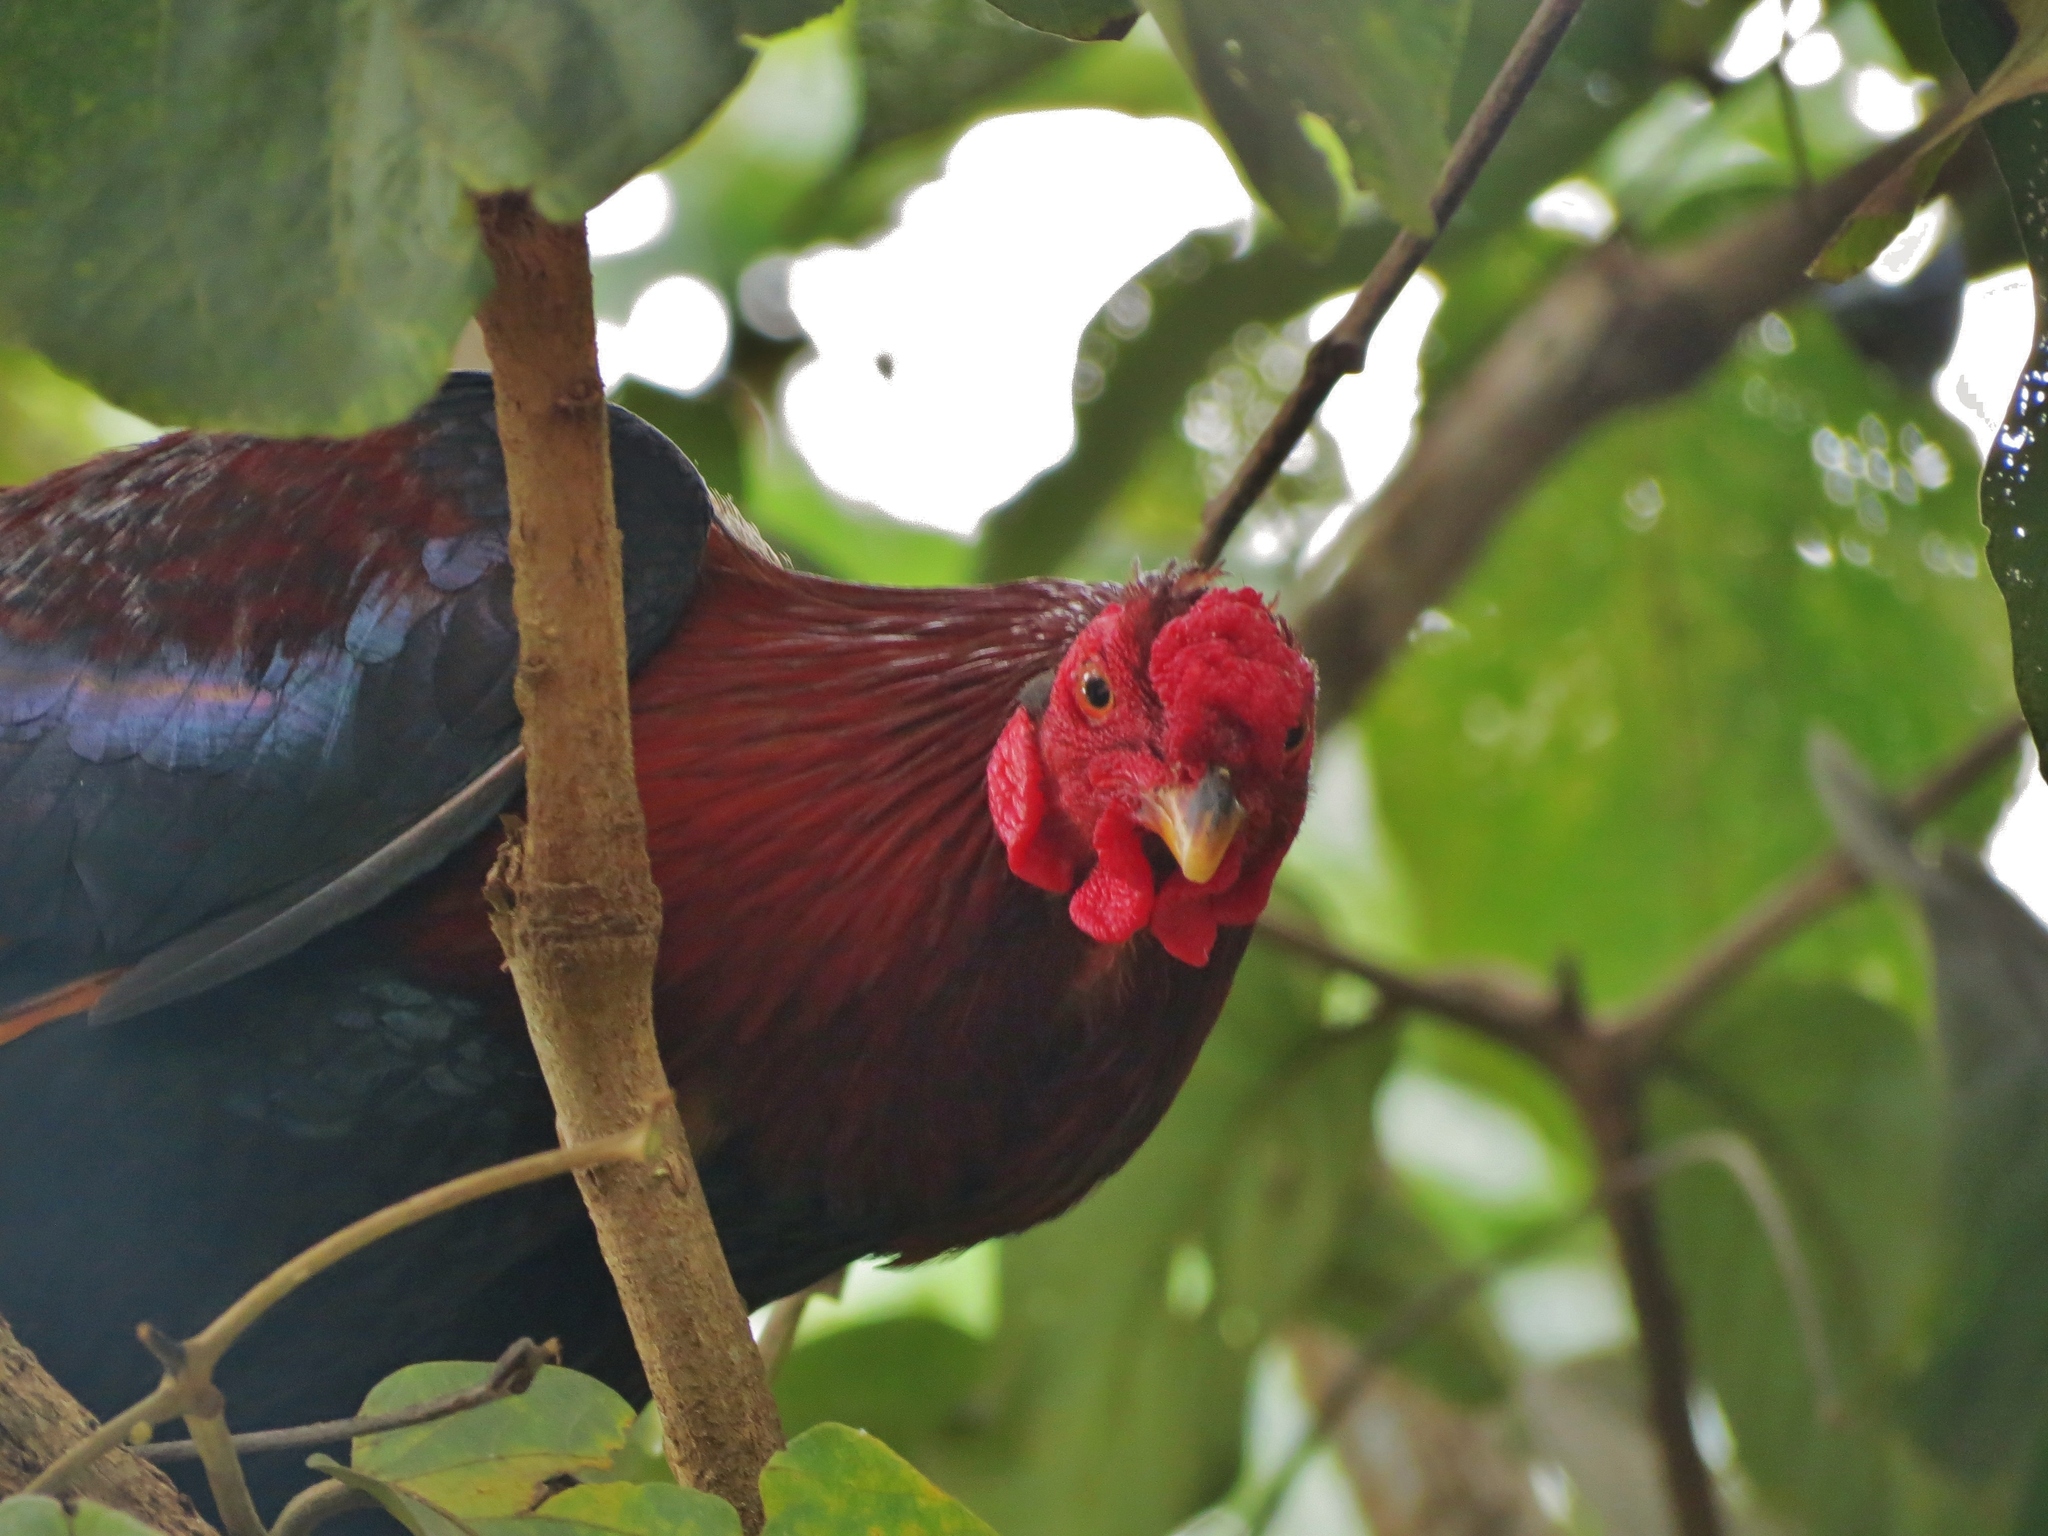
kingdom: Animalia
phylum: Chordata
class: Aves
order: Galliformes
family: Phasianidae
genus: Gallus
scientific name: Gallus gallus
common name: Red junglefowl
